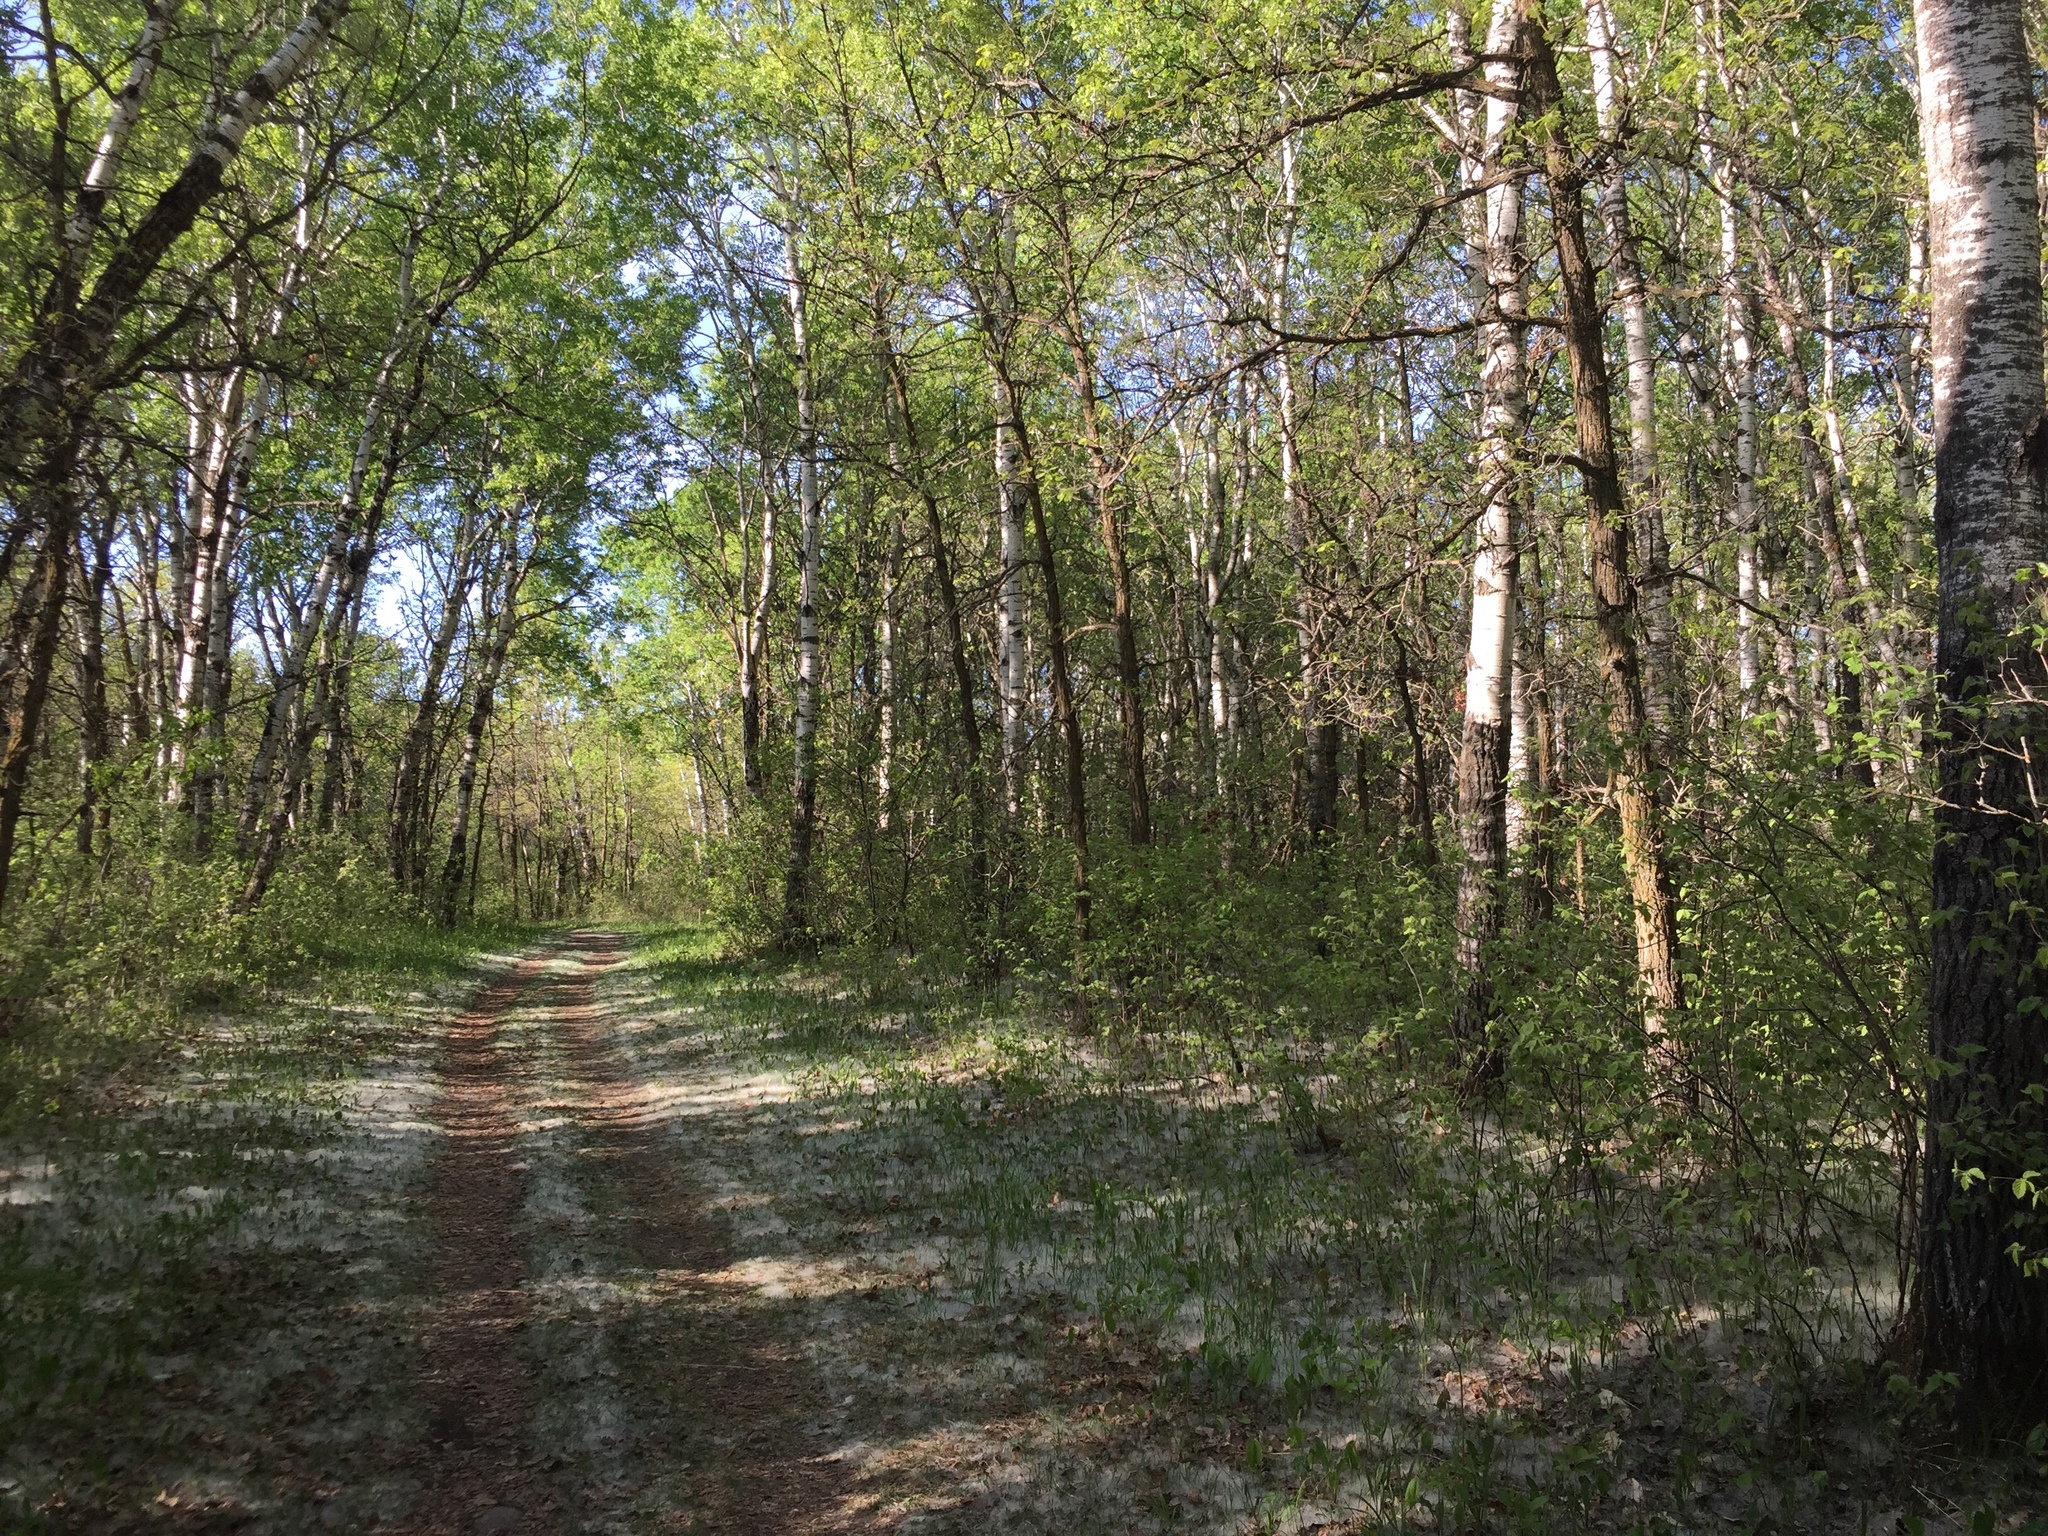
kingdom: Plantae
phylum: Tracheophyta
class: Magnoliopsida
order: Malpighiales
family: Salicaceae
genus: Populus
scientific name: Populus tremuloides
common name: Quaking aspen
